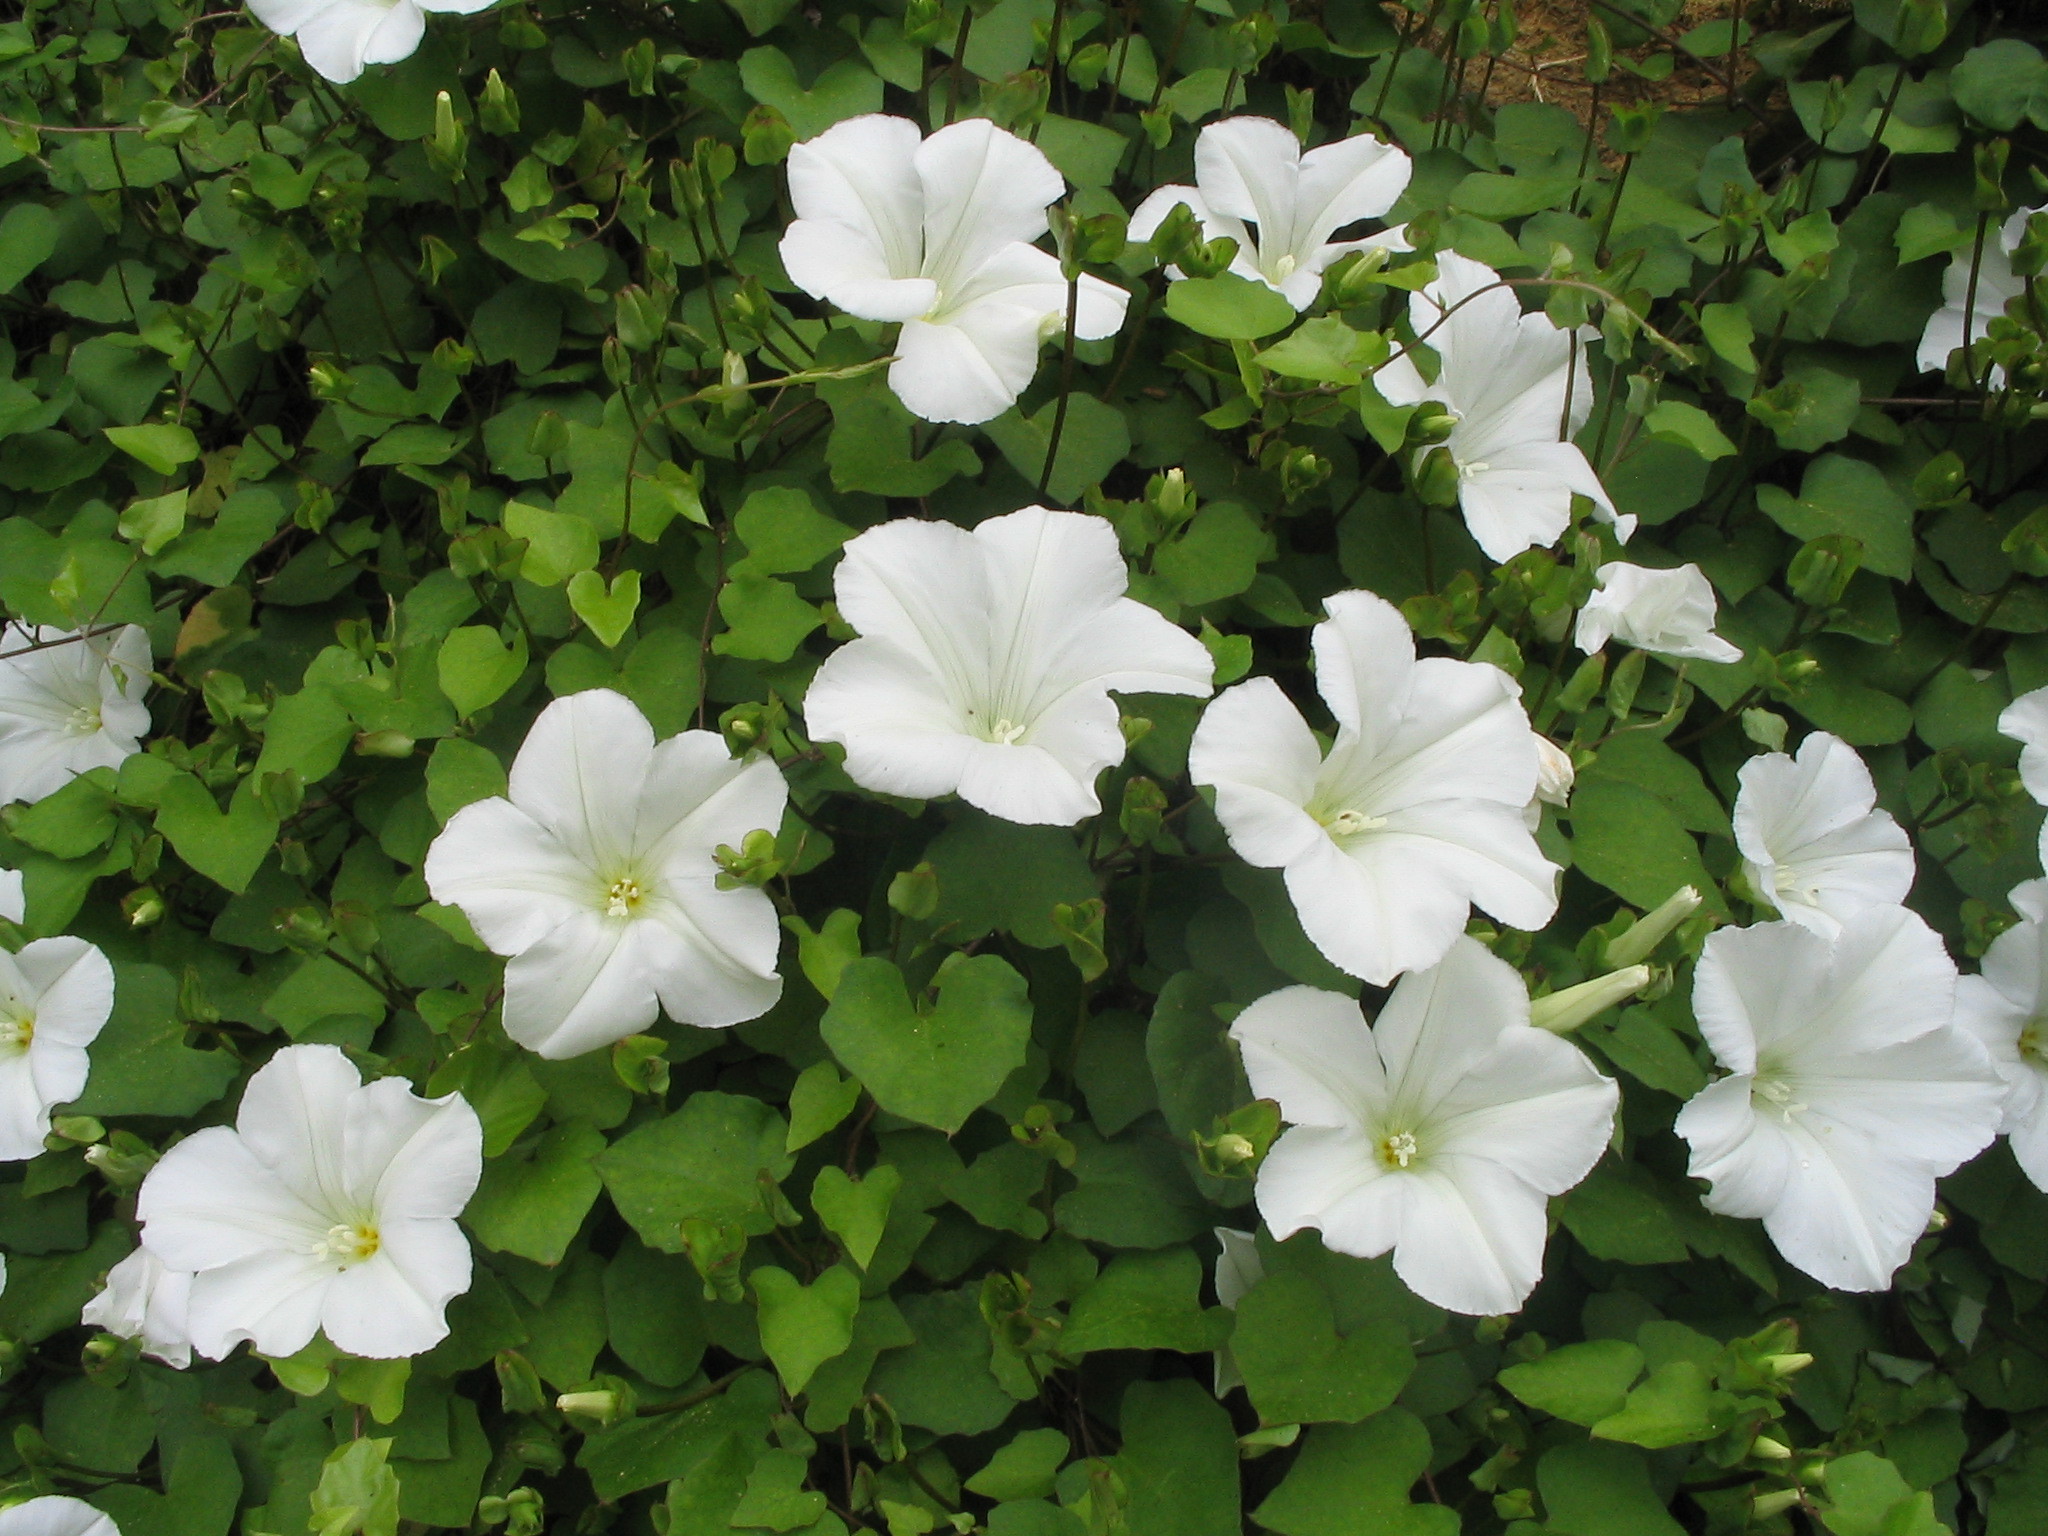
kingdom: Plantae
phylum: Tracheophyta
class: Magnoliopsida
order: Solanales
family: Convolvulaceae
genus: Calystegia
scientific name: Calystegia tuguriorum
